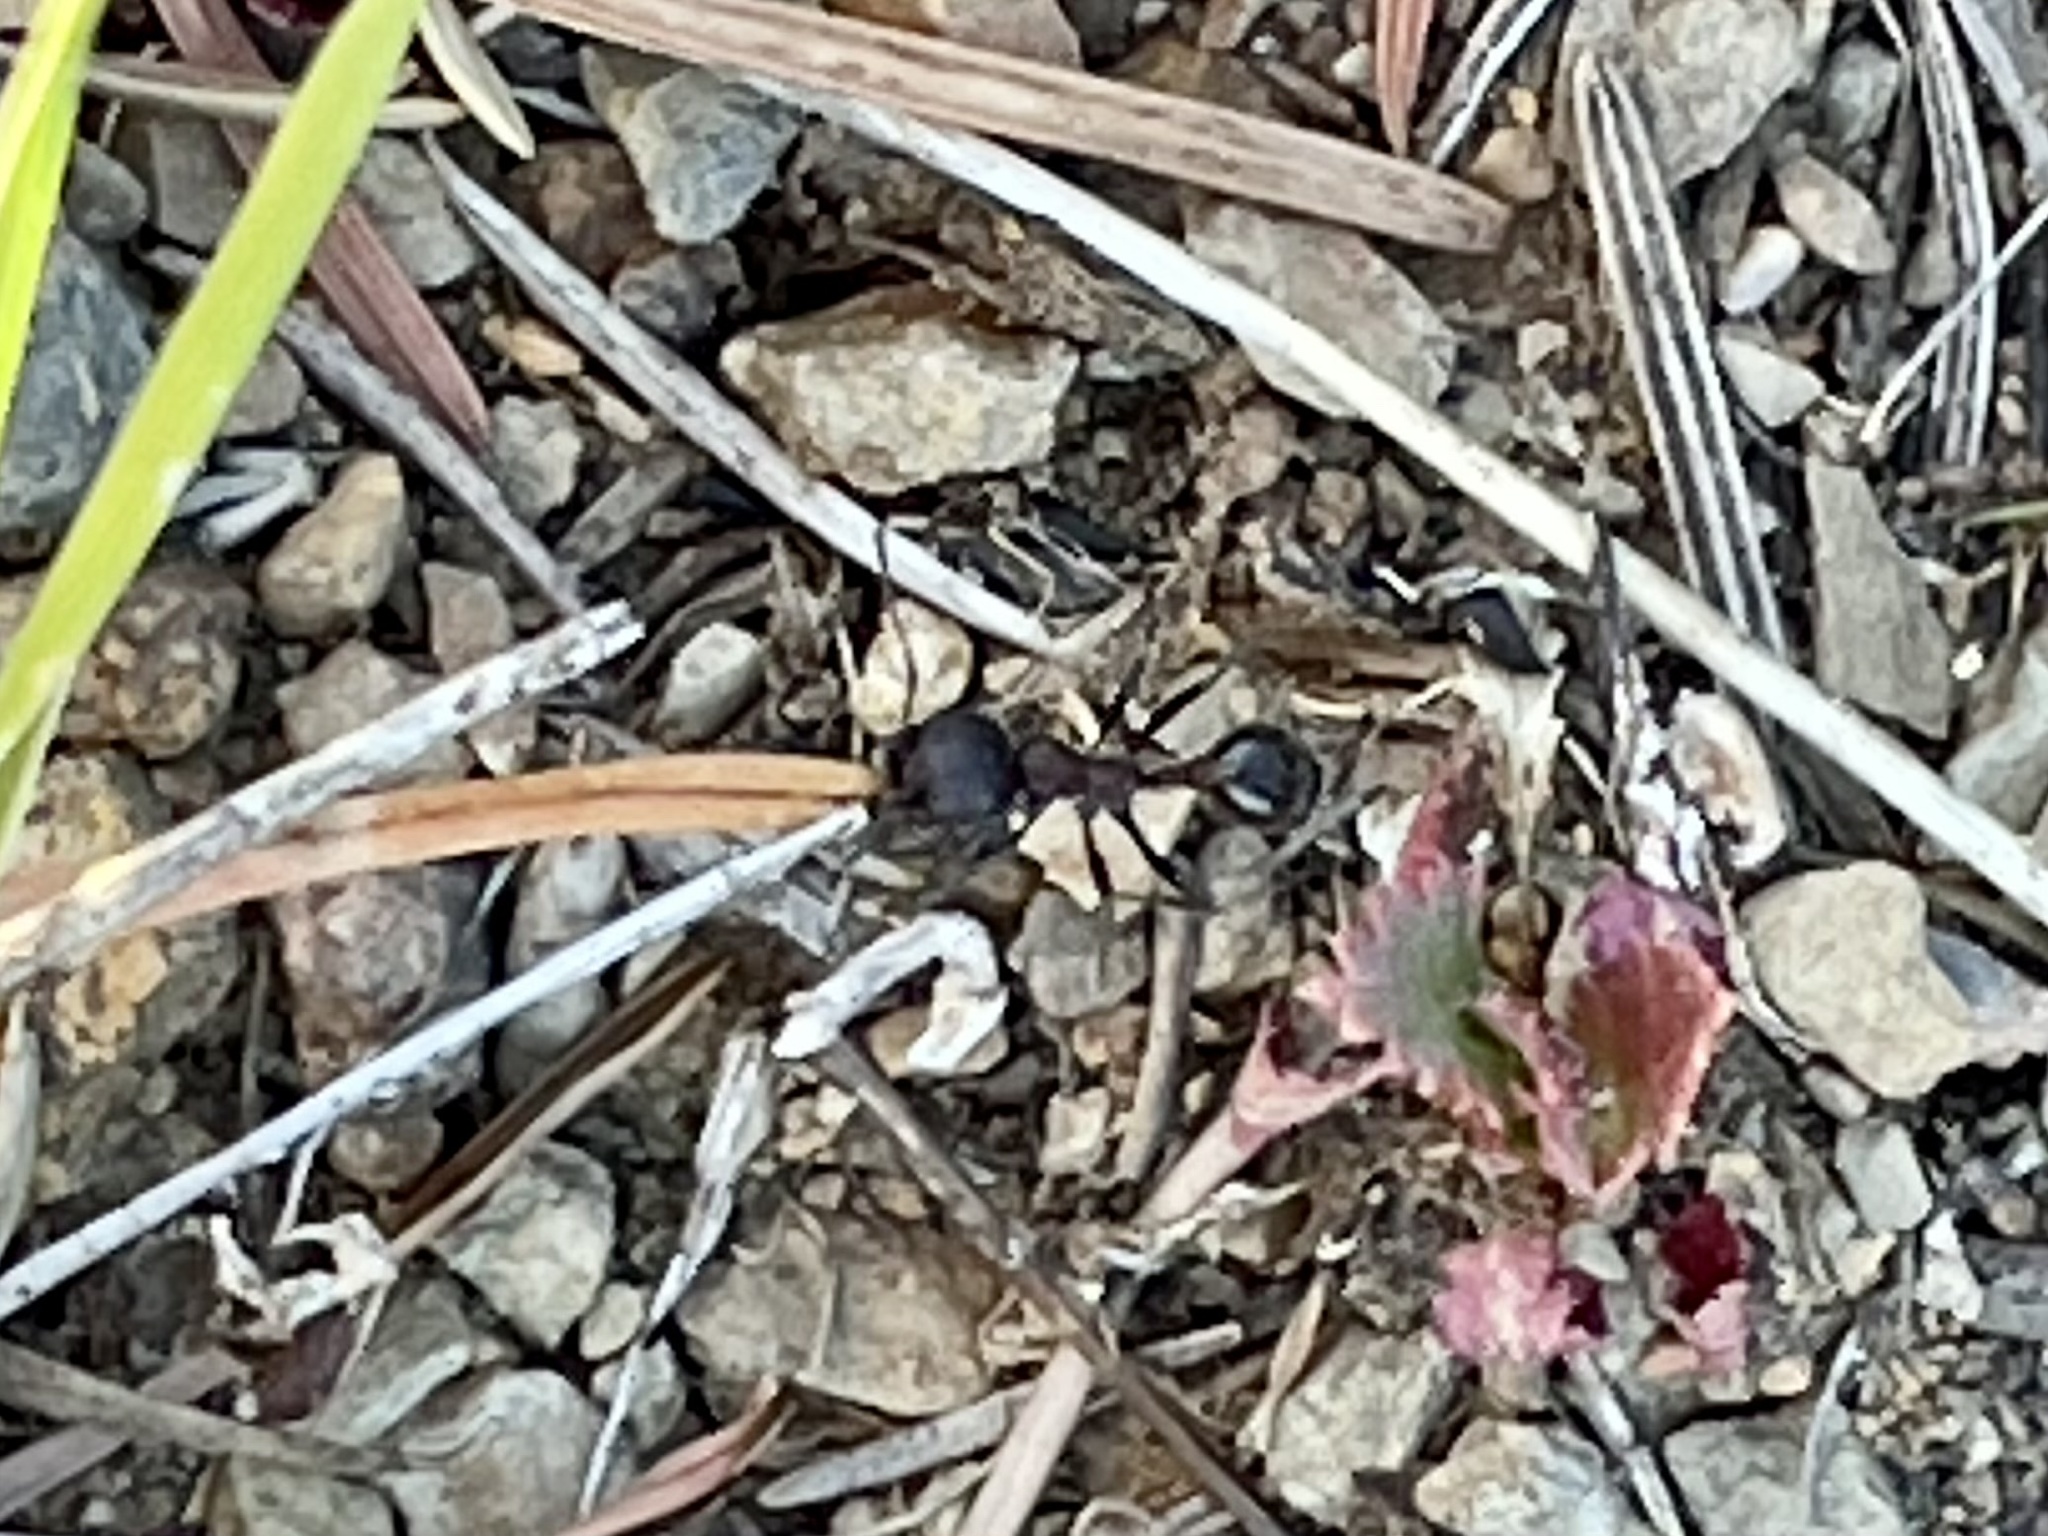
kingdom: Animalia
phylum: Arthropoda
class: Insecta
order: Hymenoptera
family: Formicidae
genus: Veromessor
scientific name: Veromessor andrei
